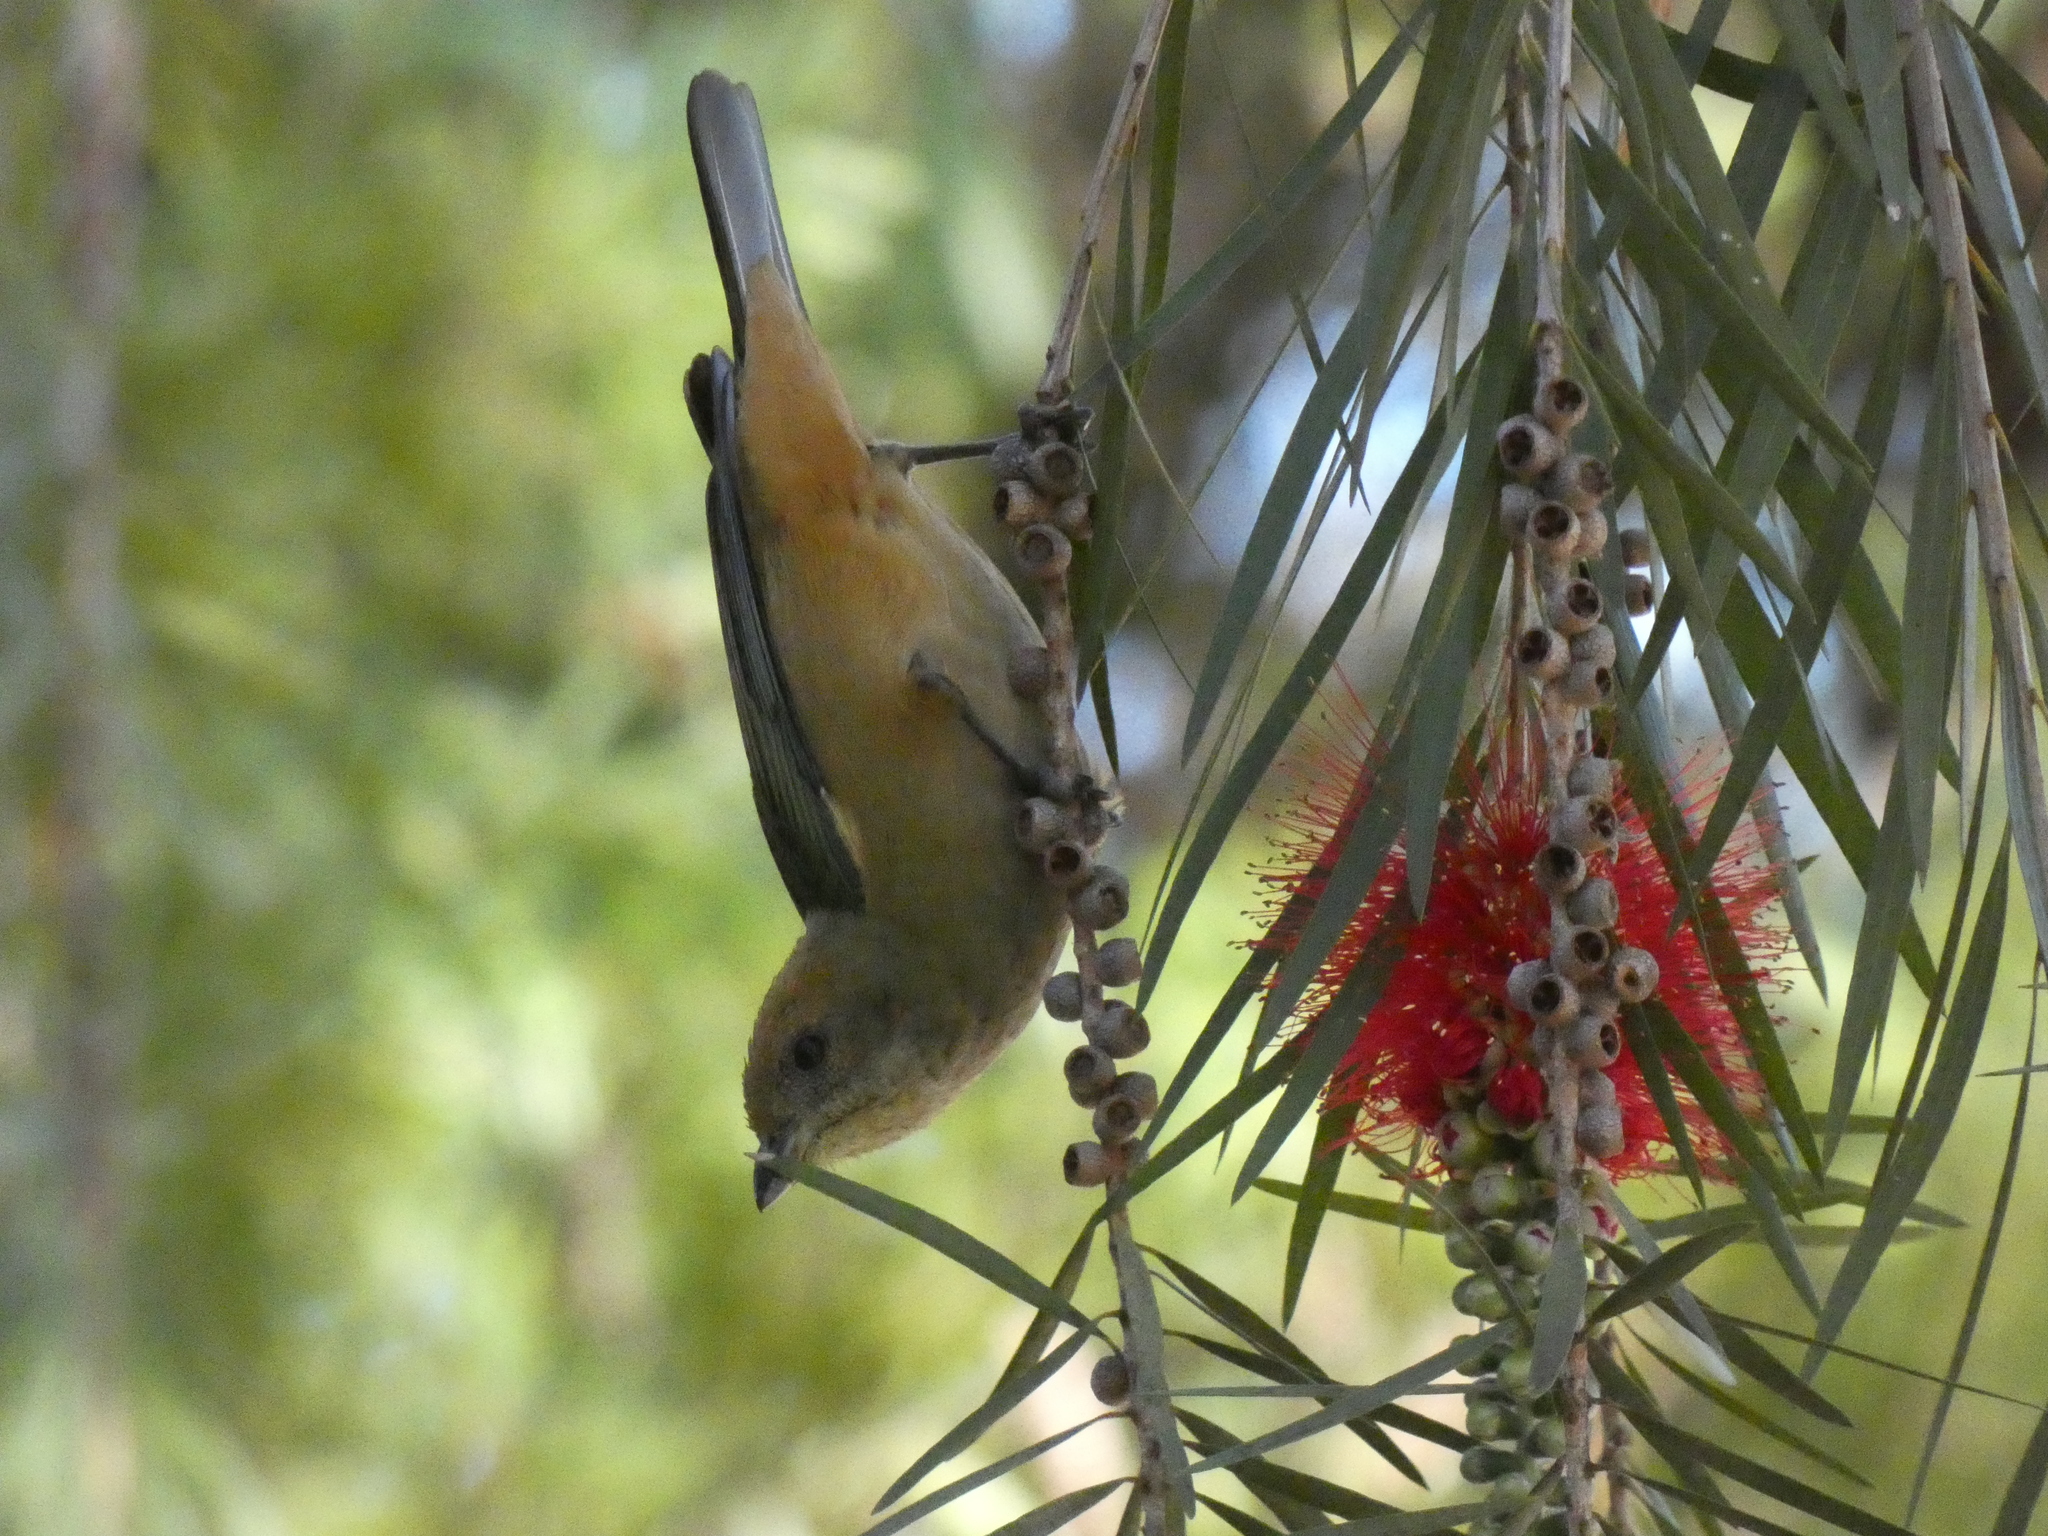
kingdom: Animalia
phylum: Chordata
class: Aves
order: Passeriformes
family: Thraupidae
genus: Stilpnia
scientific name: Stilpnia cayana
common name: Burnished-buff tanager
